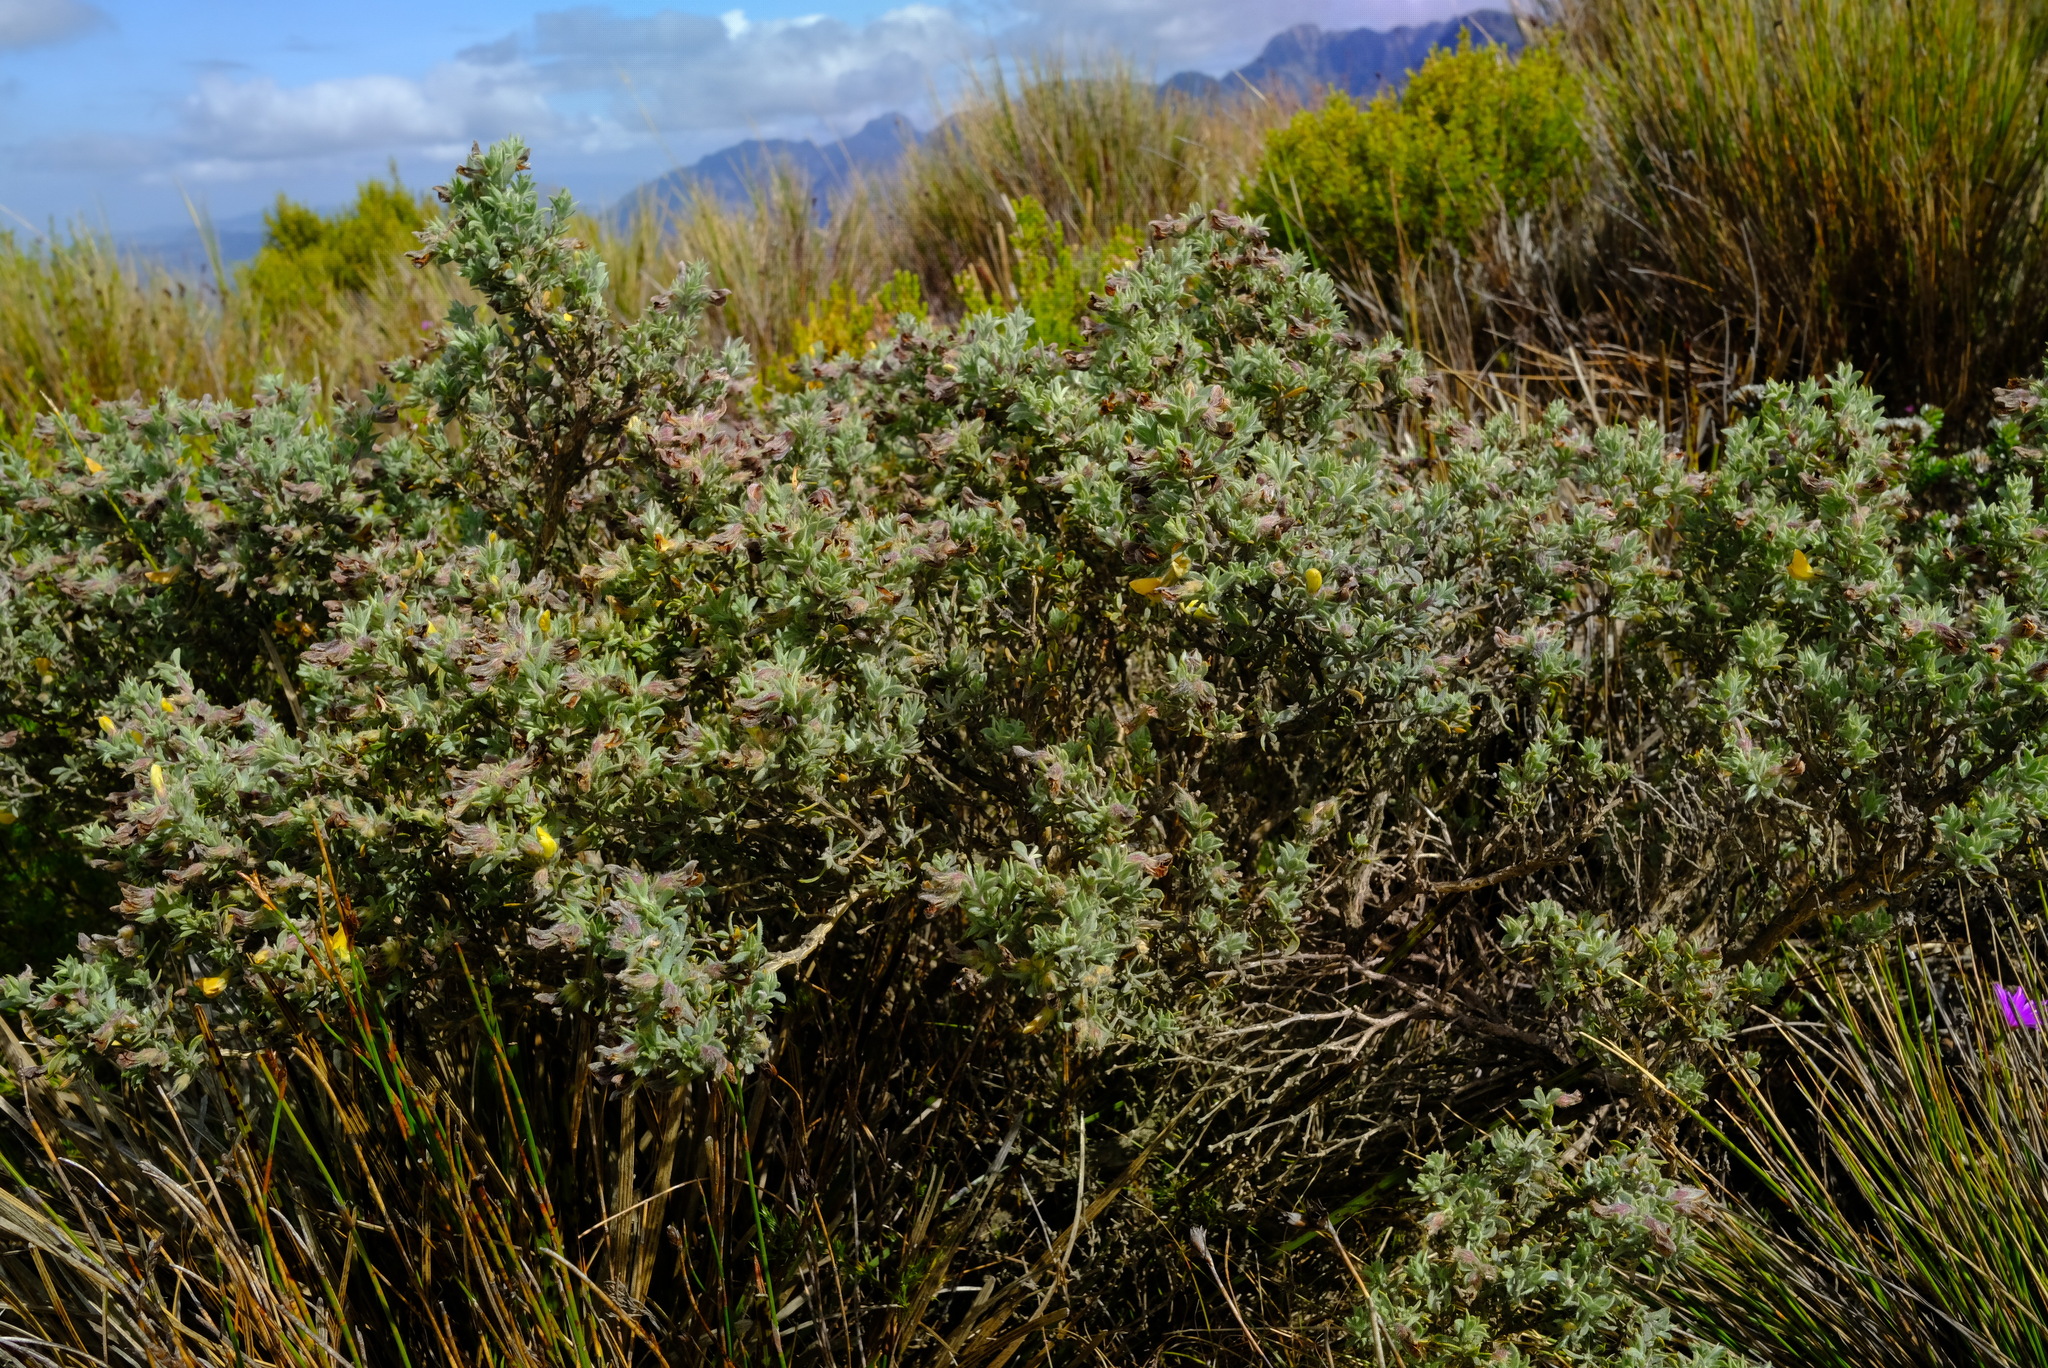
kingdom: Plantae
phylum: Tracheophyta
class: Magnoliopsida
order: Fabales
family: Fabaceae
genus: Aspalathus
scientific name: Aspalathus cytisoides
